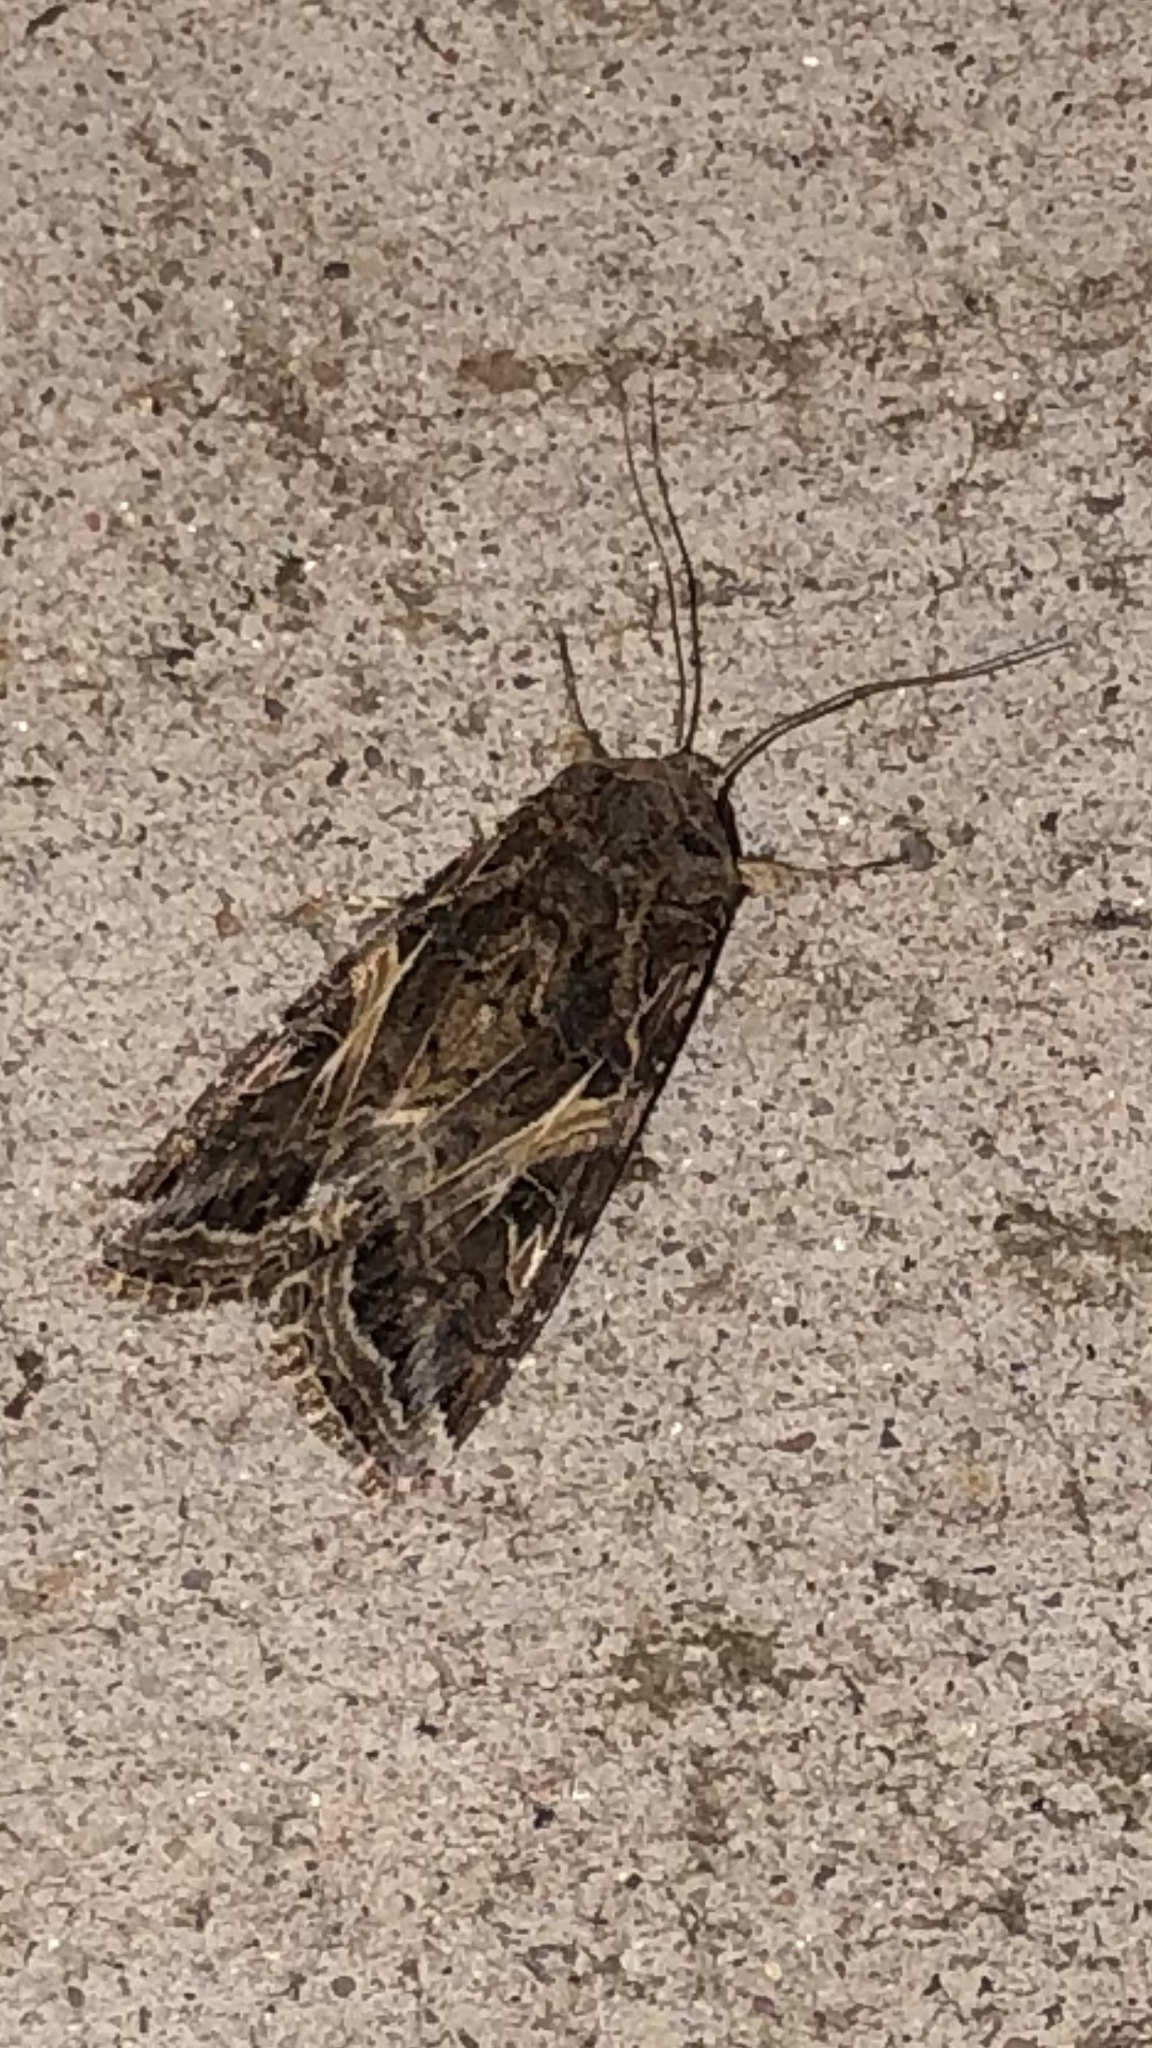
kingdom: Animalia
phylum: Arthropoda
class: Insecta
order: Lepidoptera
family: Noctuidae
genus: Spodoptera
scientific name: Spodoptera ornithogalli
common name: Yellow-striped armyworm
